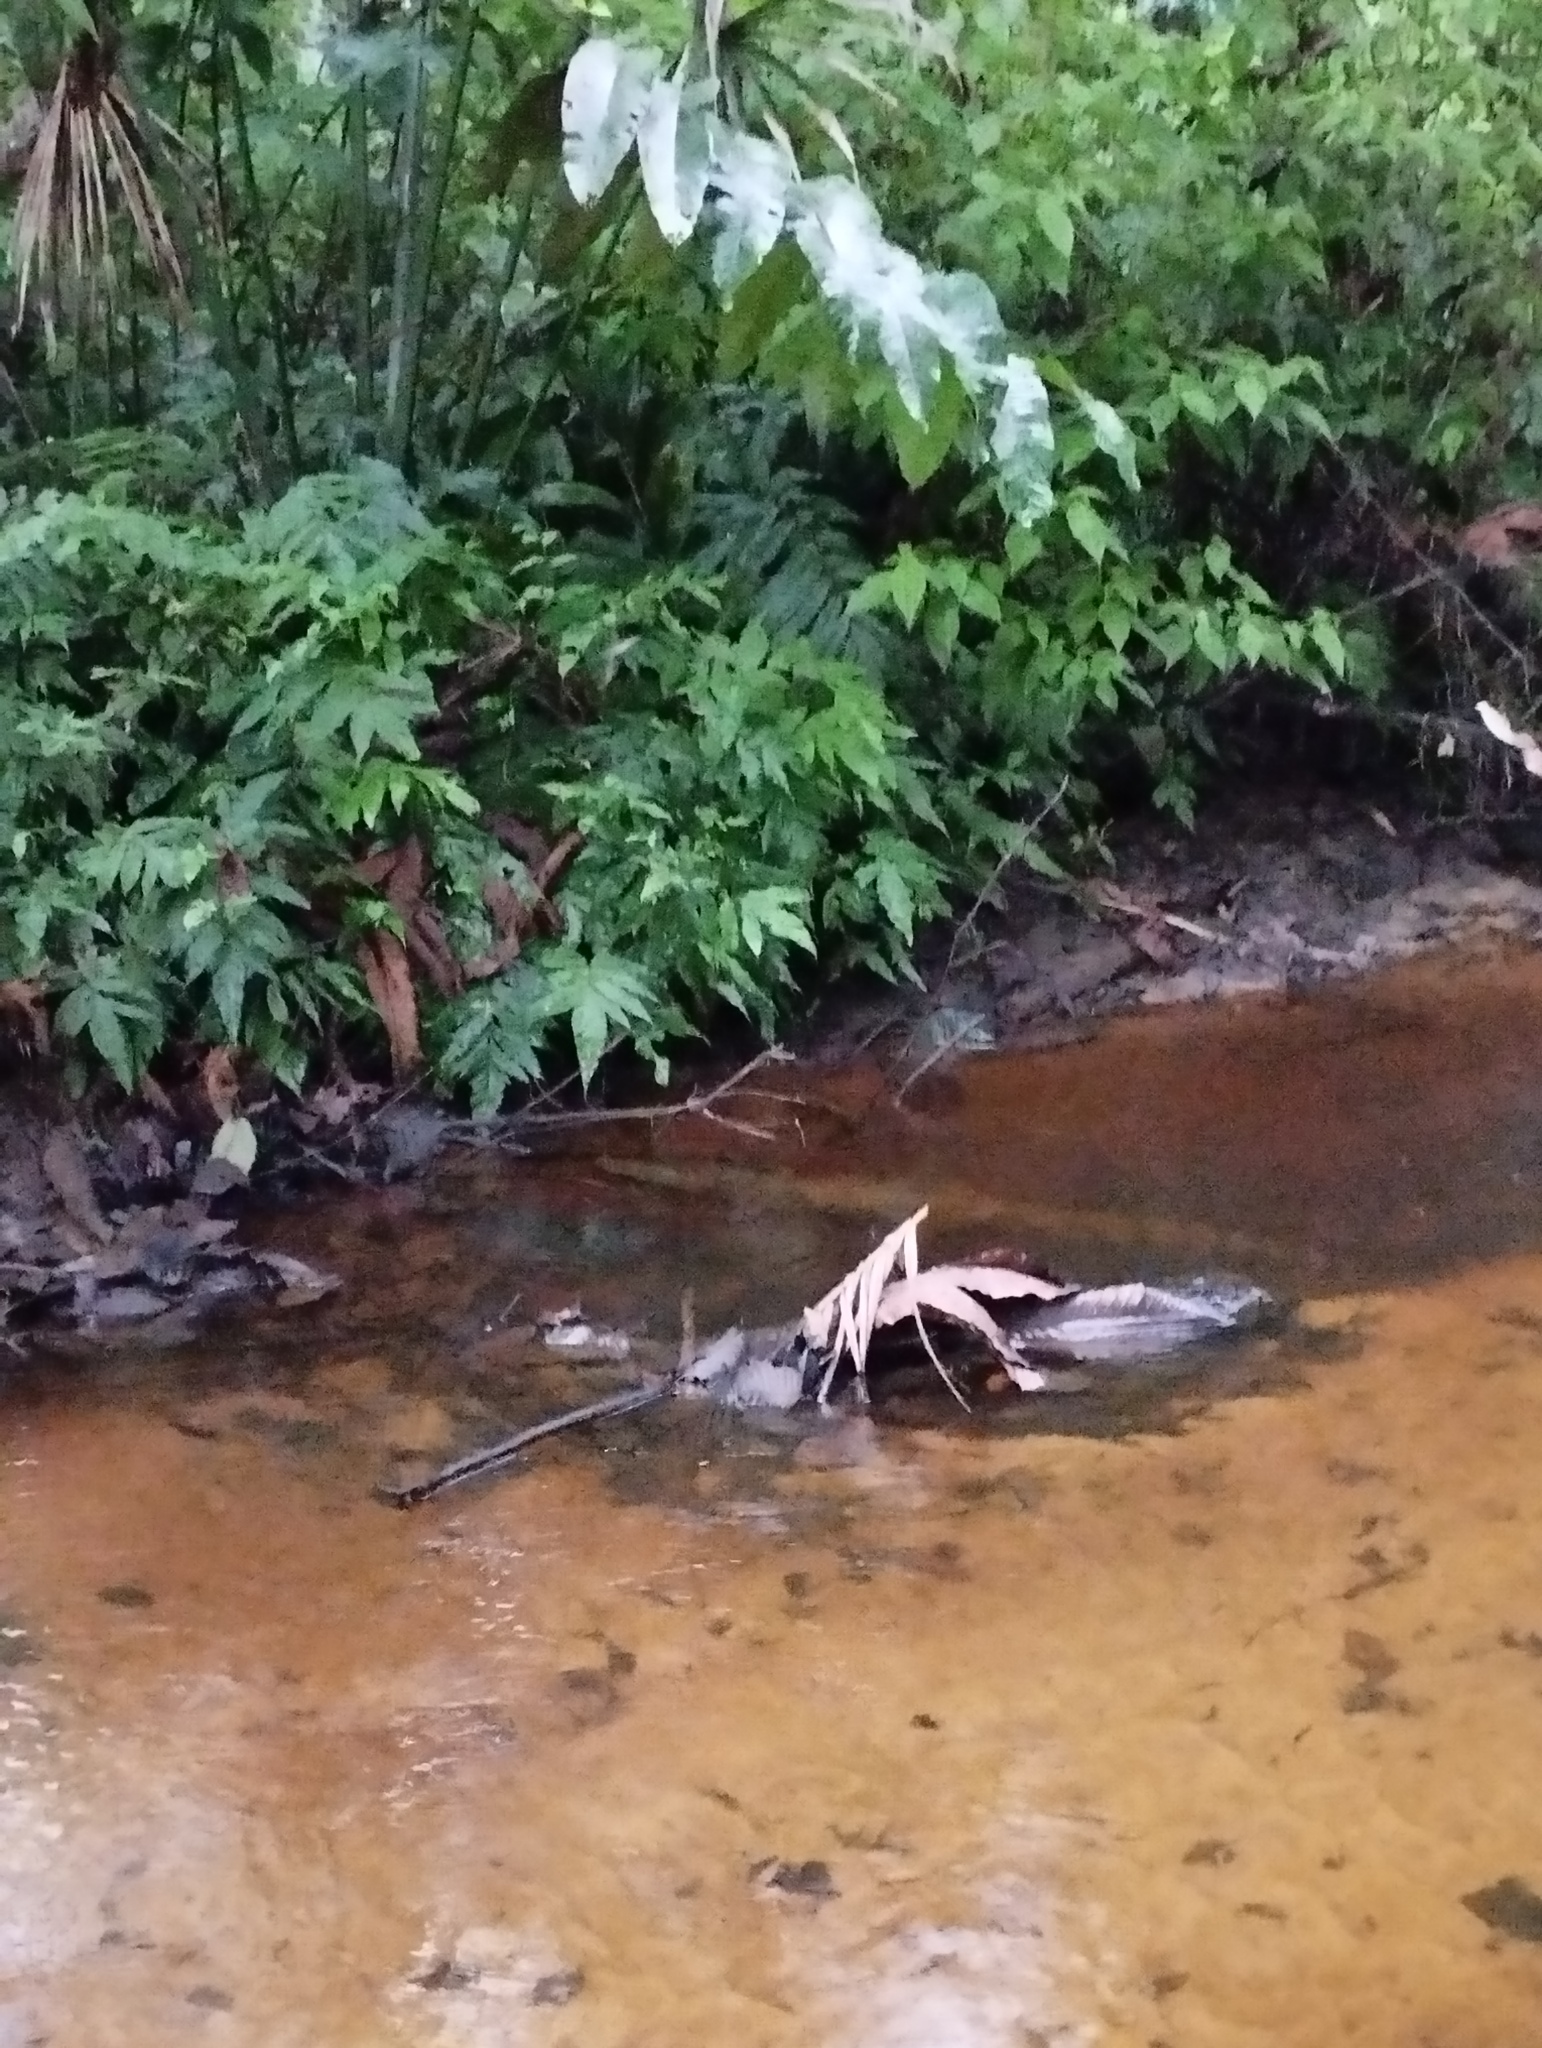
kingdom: Animalia
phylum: Chordata
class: Crocodylia
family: Alligatoridae
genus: Caiman
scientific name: Caiman crocodilus
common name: Common caiman
